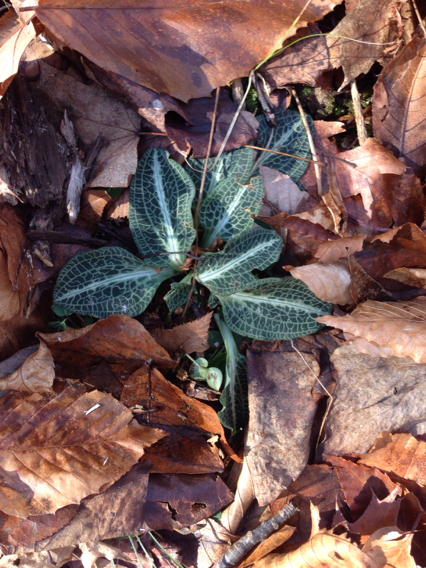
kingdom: Plantae
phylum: Tracheophyta
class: Liliopsida
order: Asparagales
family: Orchidaceae
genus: Goodyera
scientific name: Goodyera pubescens
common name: Downy rattlesnake-plantain
